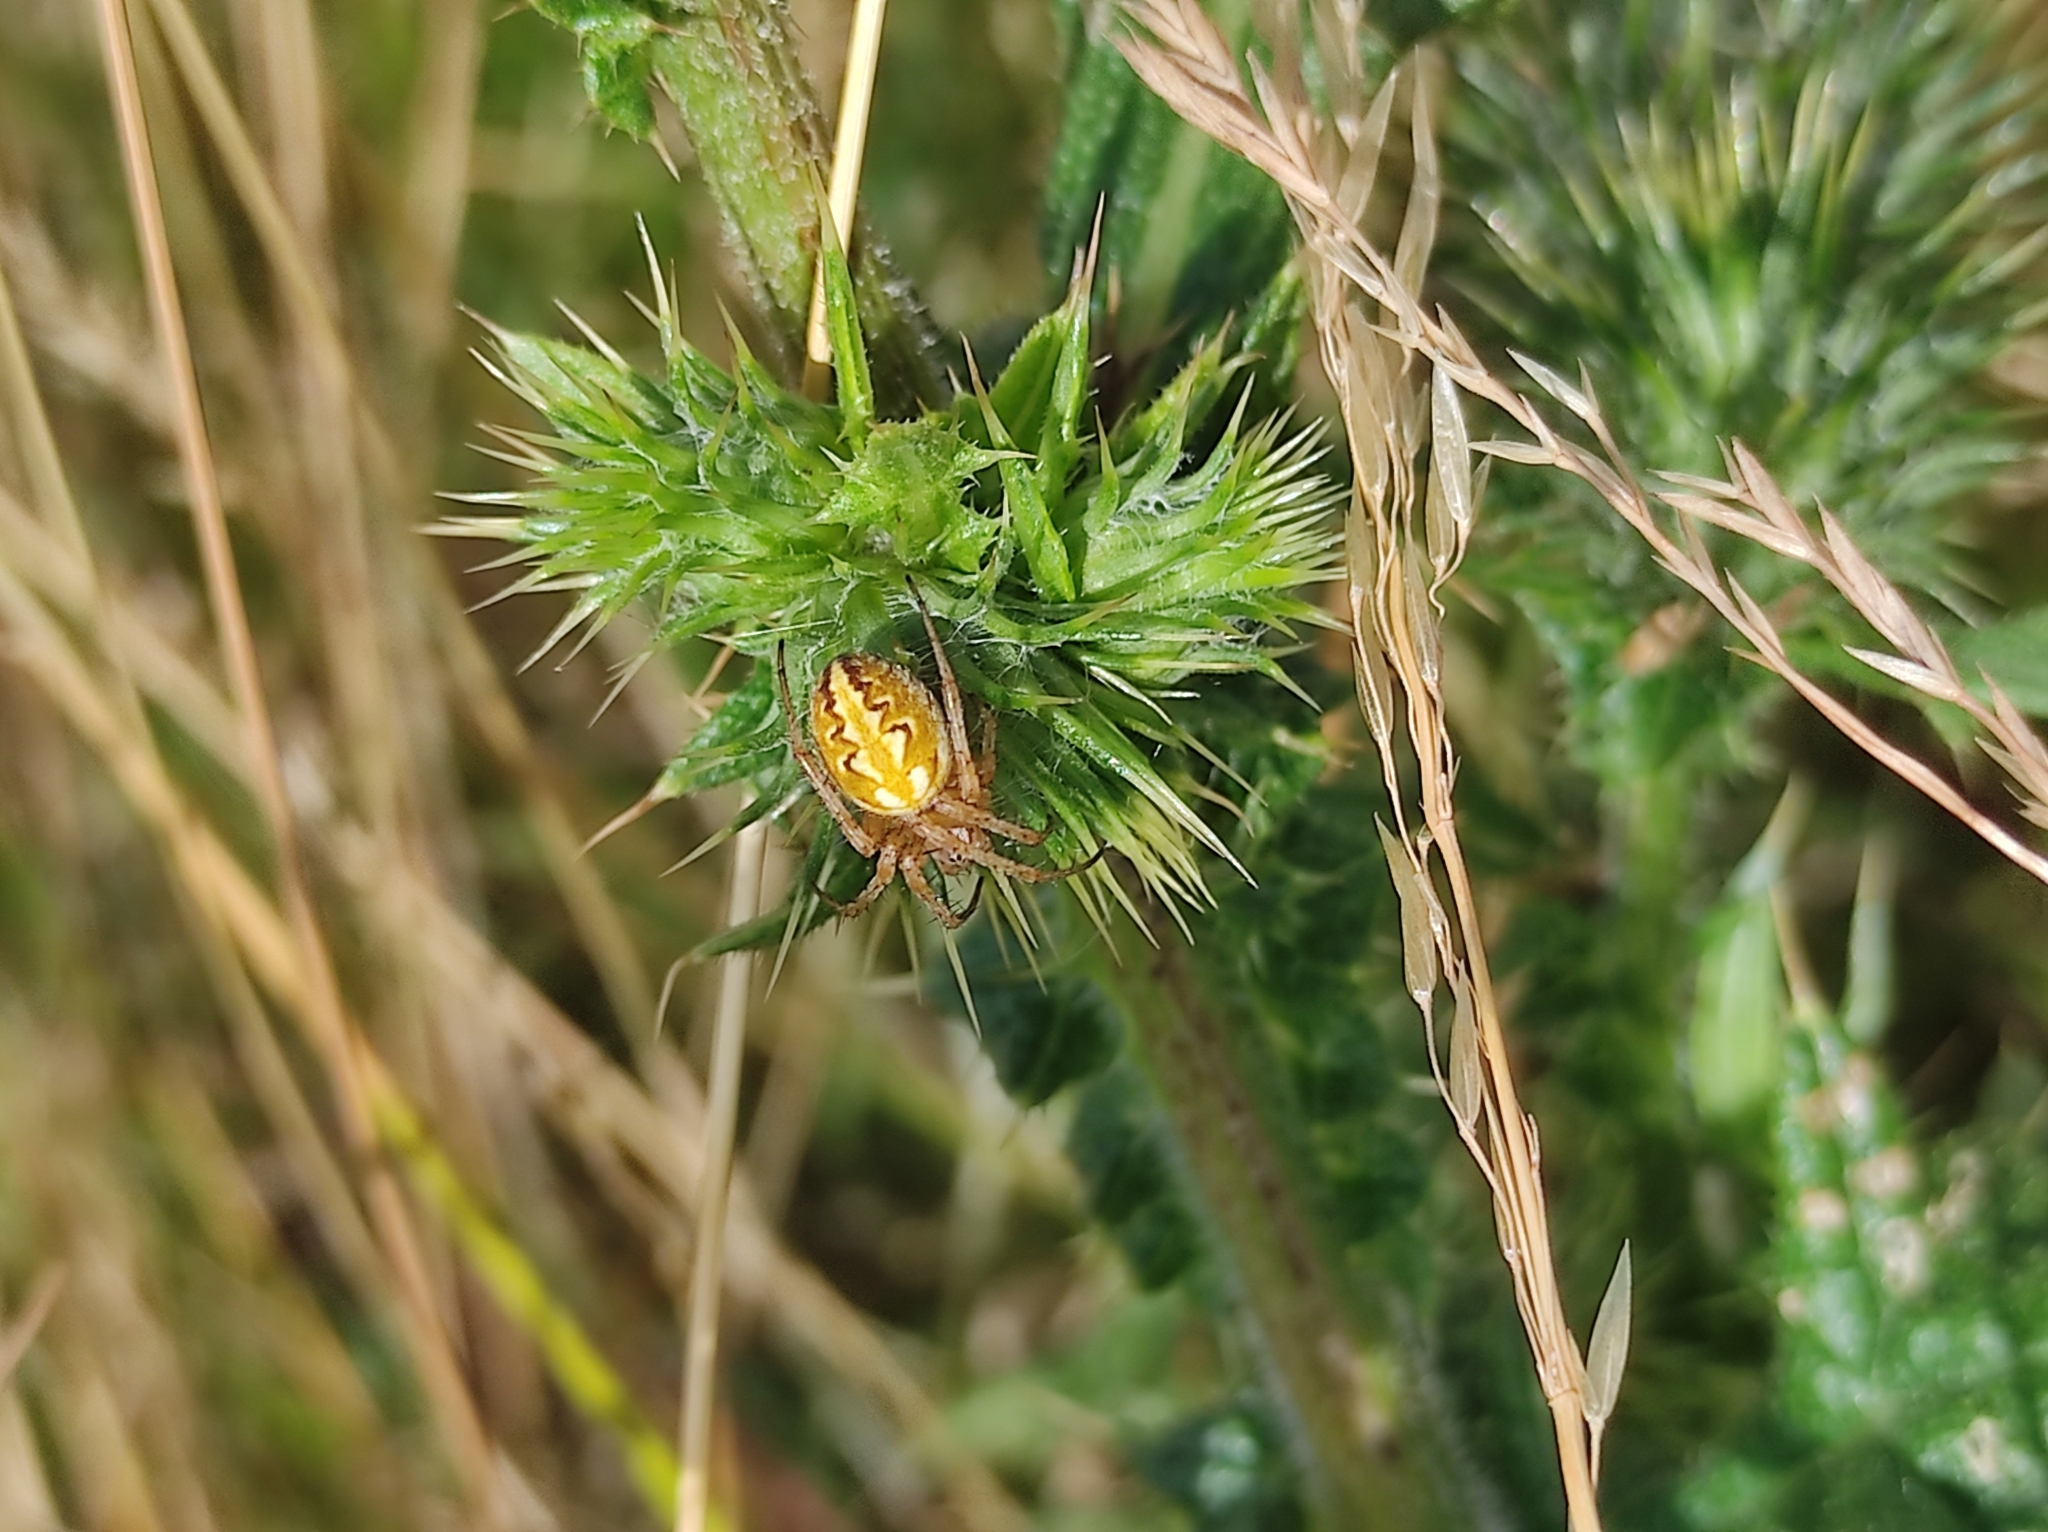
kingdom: Animalia
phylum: Arthropoda
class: Arachnida
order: Araneae
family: Araneidae
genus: Neoscona
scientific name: Neoscona adianta
